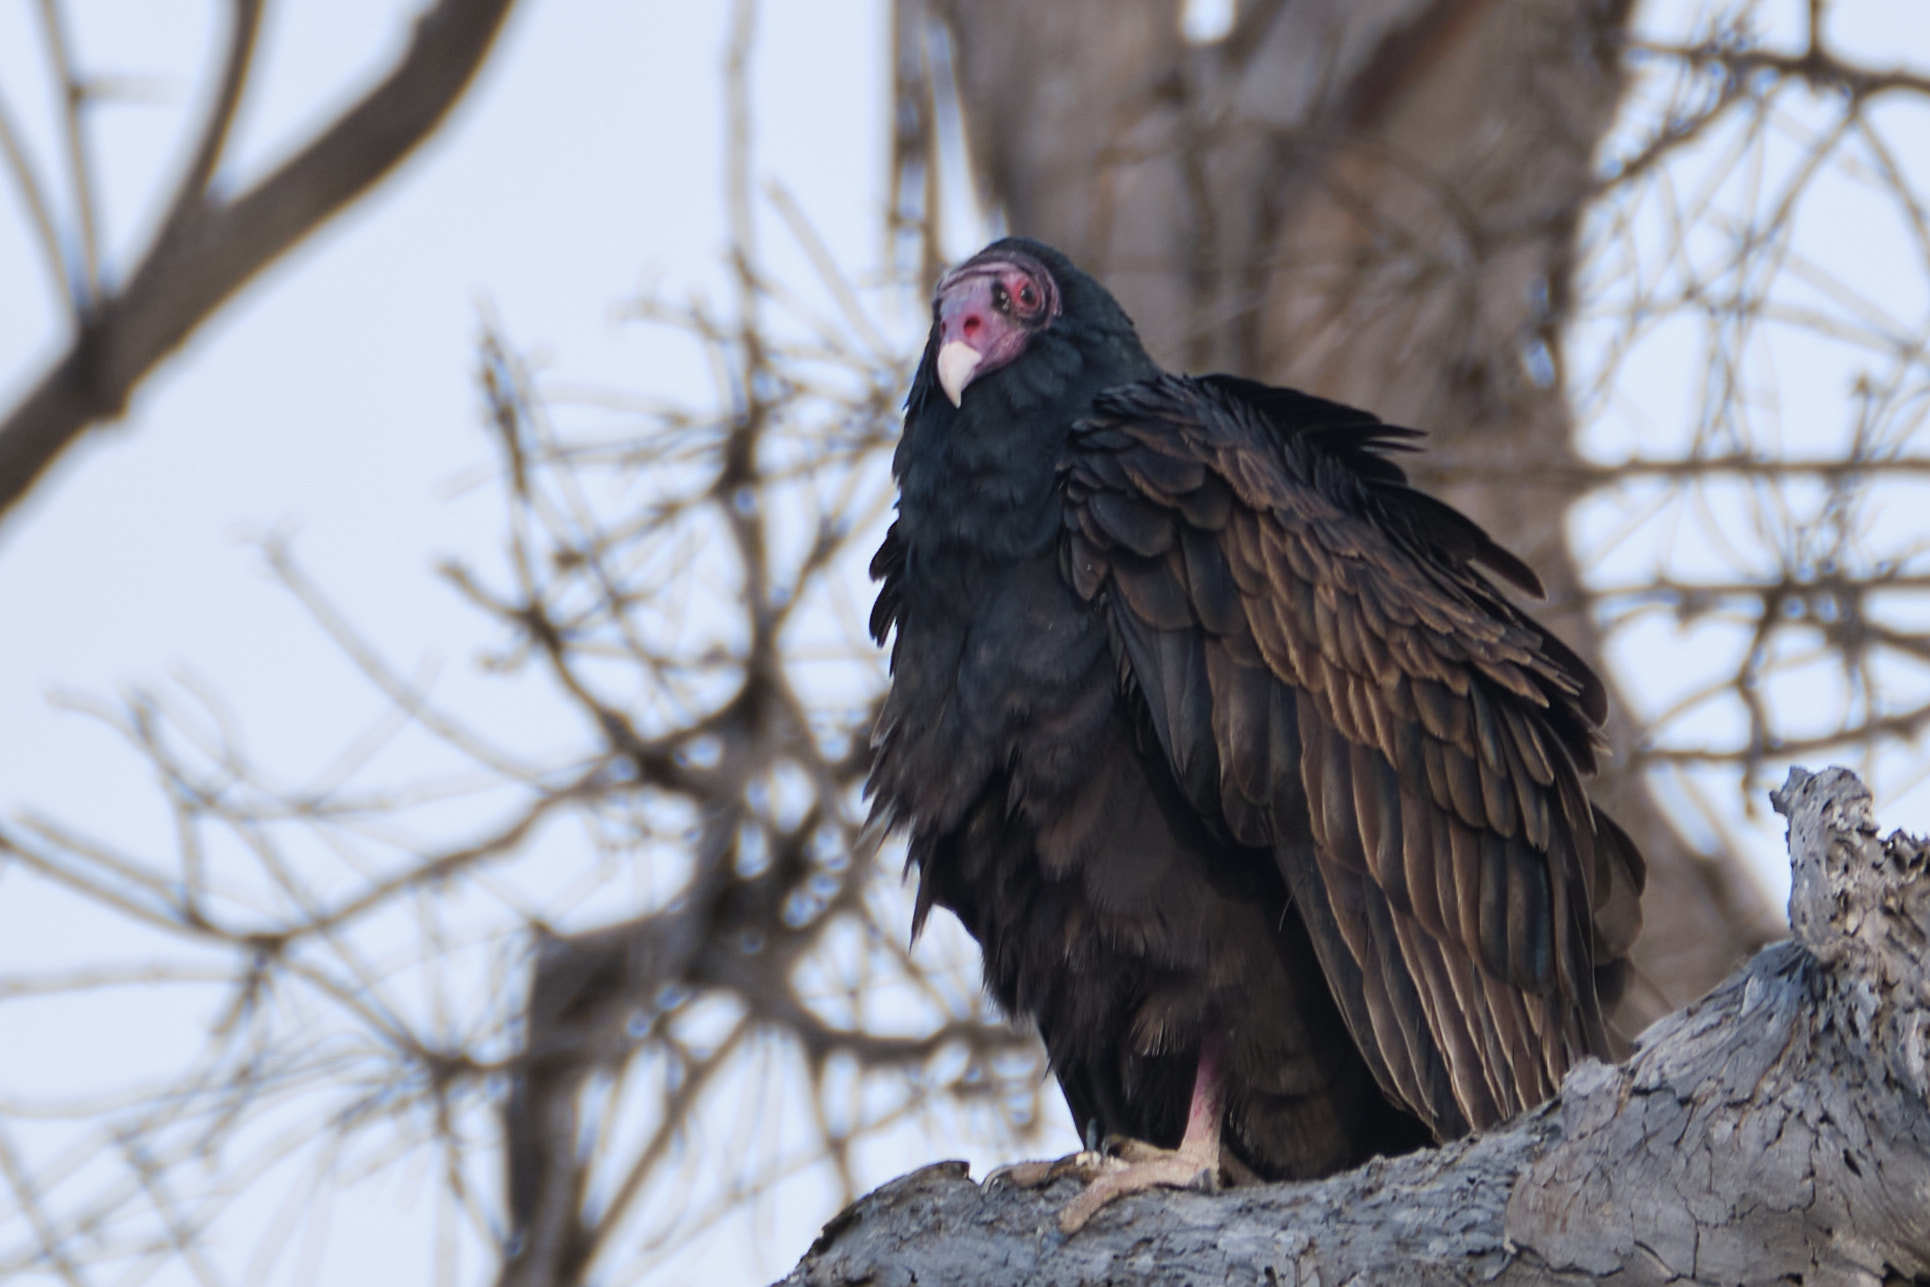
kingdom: Animalia
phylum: Chordata
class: Aves
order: Accipitriformes
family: Cathartidae
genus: Cathartes
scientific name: Cathartes aura
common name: Turkey vulture
